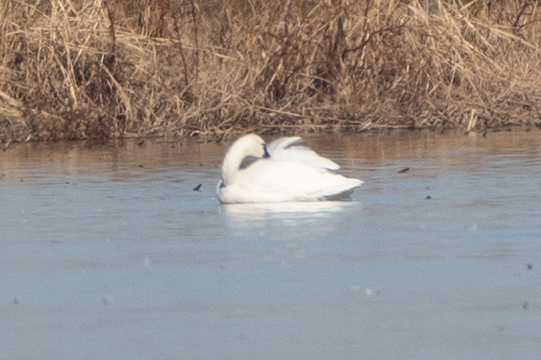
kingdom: Animalia
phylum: Chordata
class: Aves
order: Anseriformes
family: Anatidae
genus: Cygnus
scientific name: Cygnus columbianus
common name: Tundra swan
